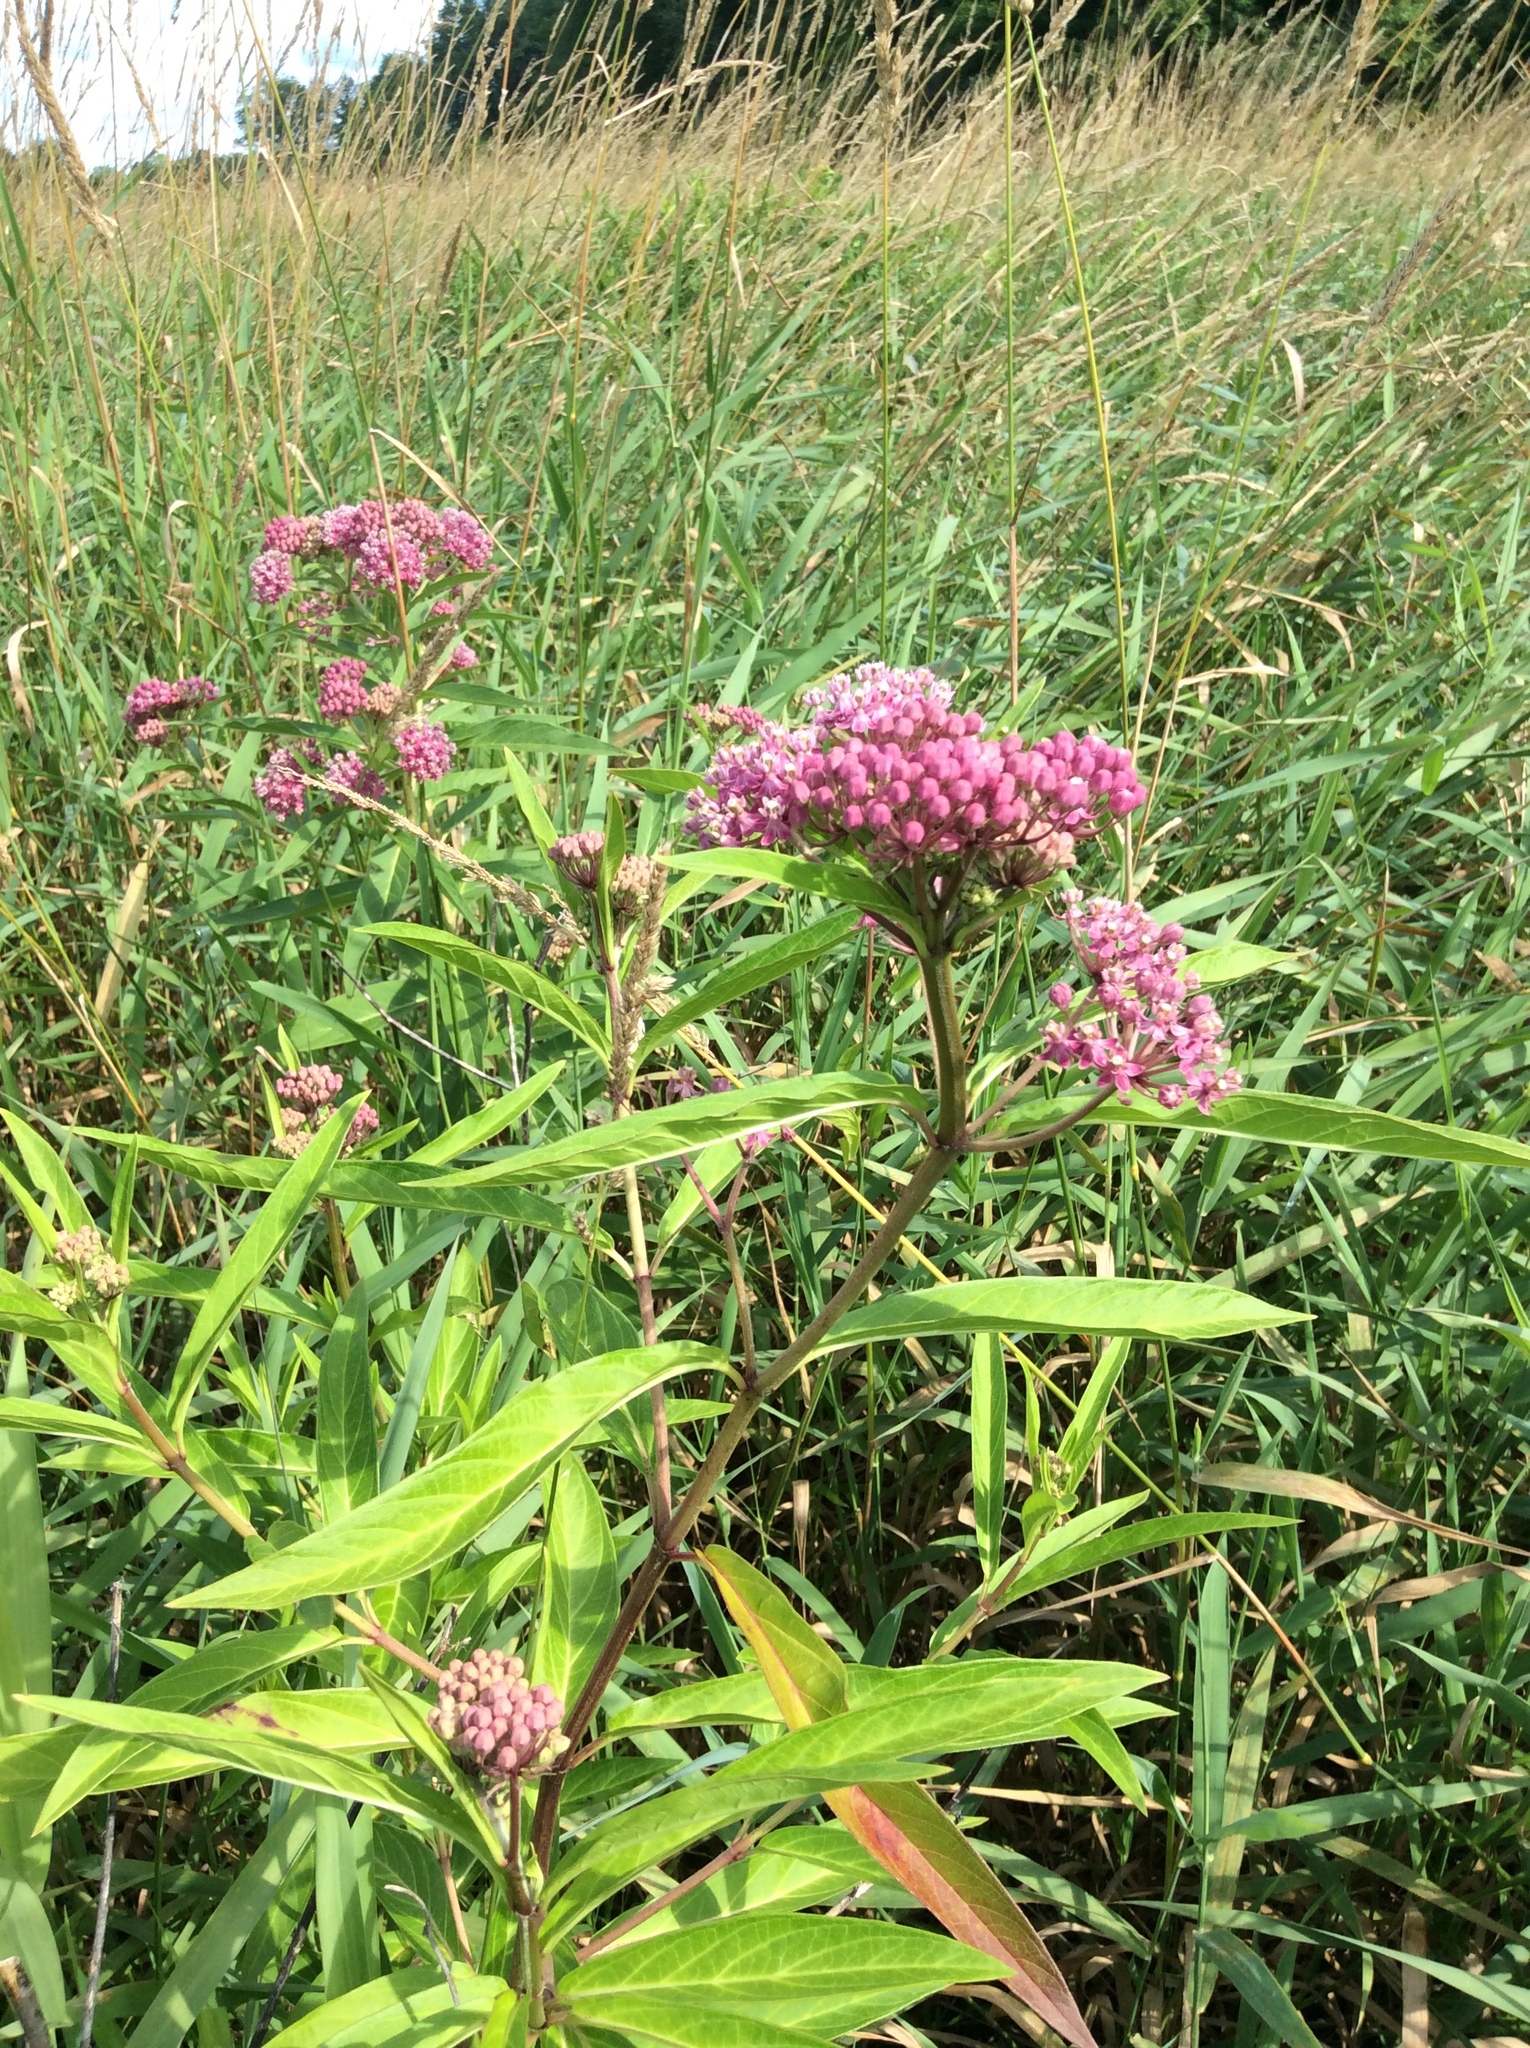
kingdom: Plantae
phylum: Tracheophyta
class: Magnoliopsida
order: Gentianales
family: Apocynaceae
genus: Asclepias
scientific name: Asclepias incarnata
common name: Swamp milkweed
